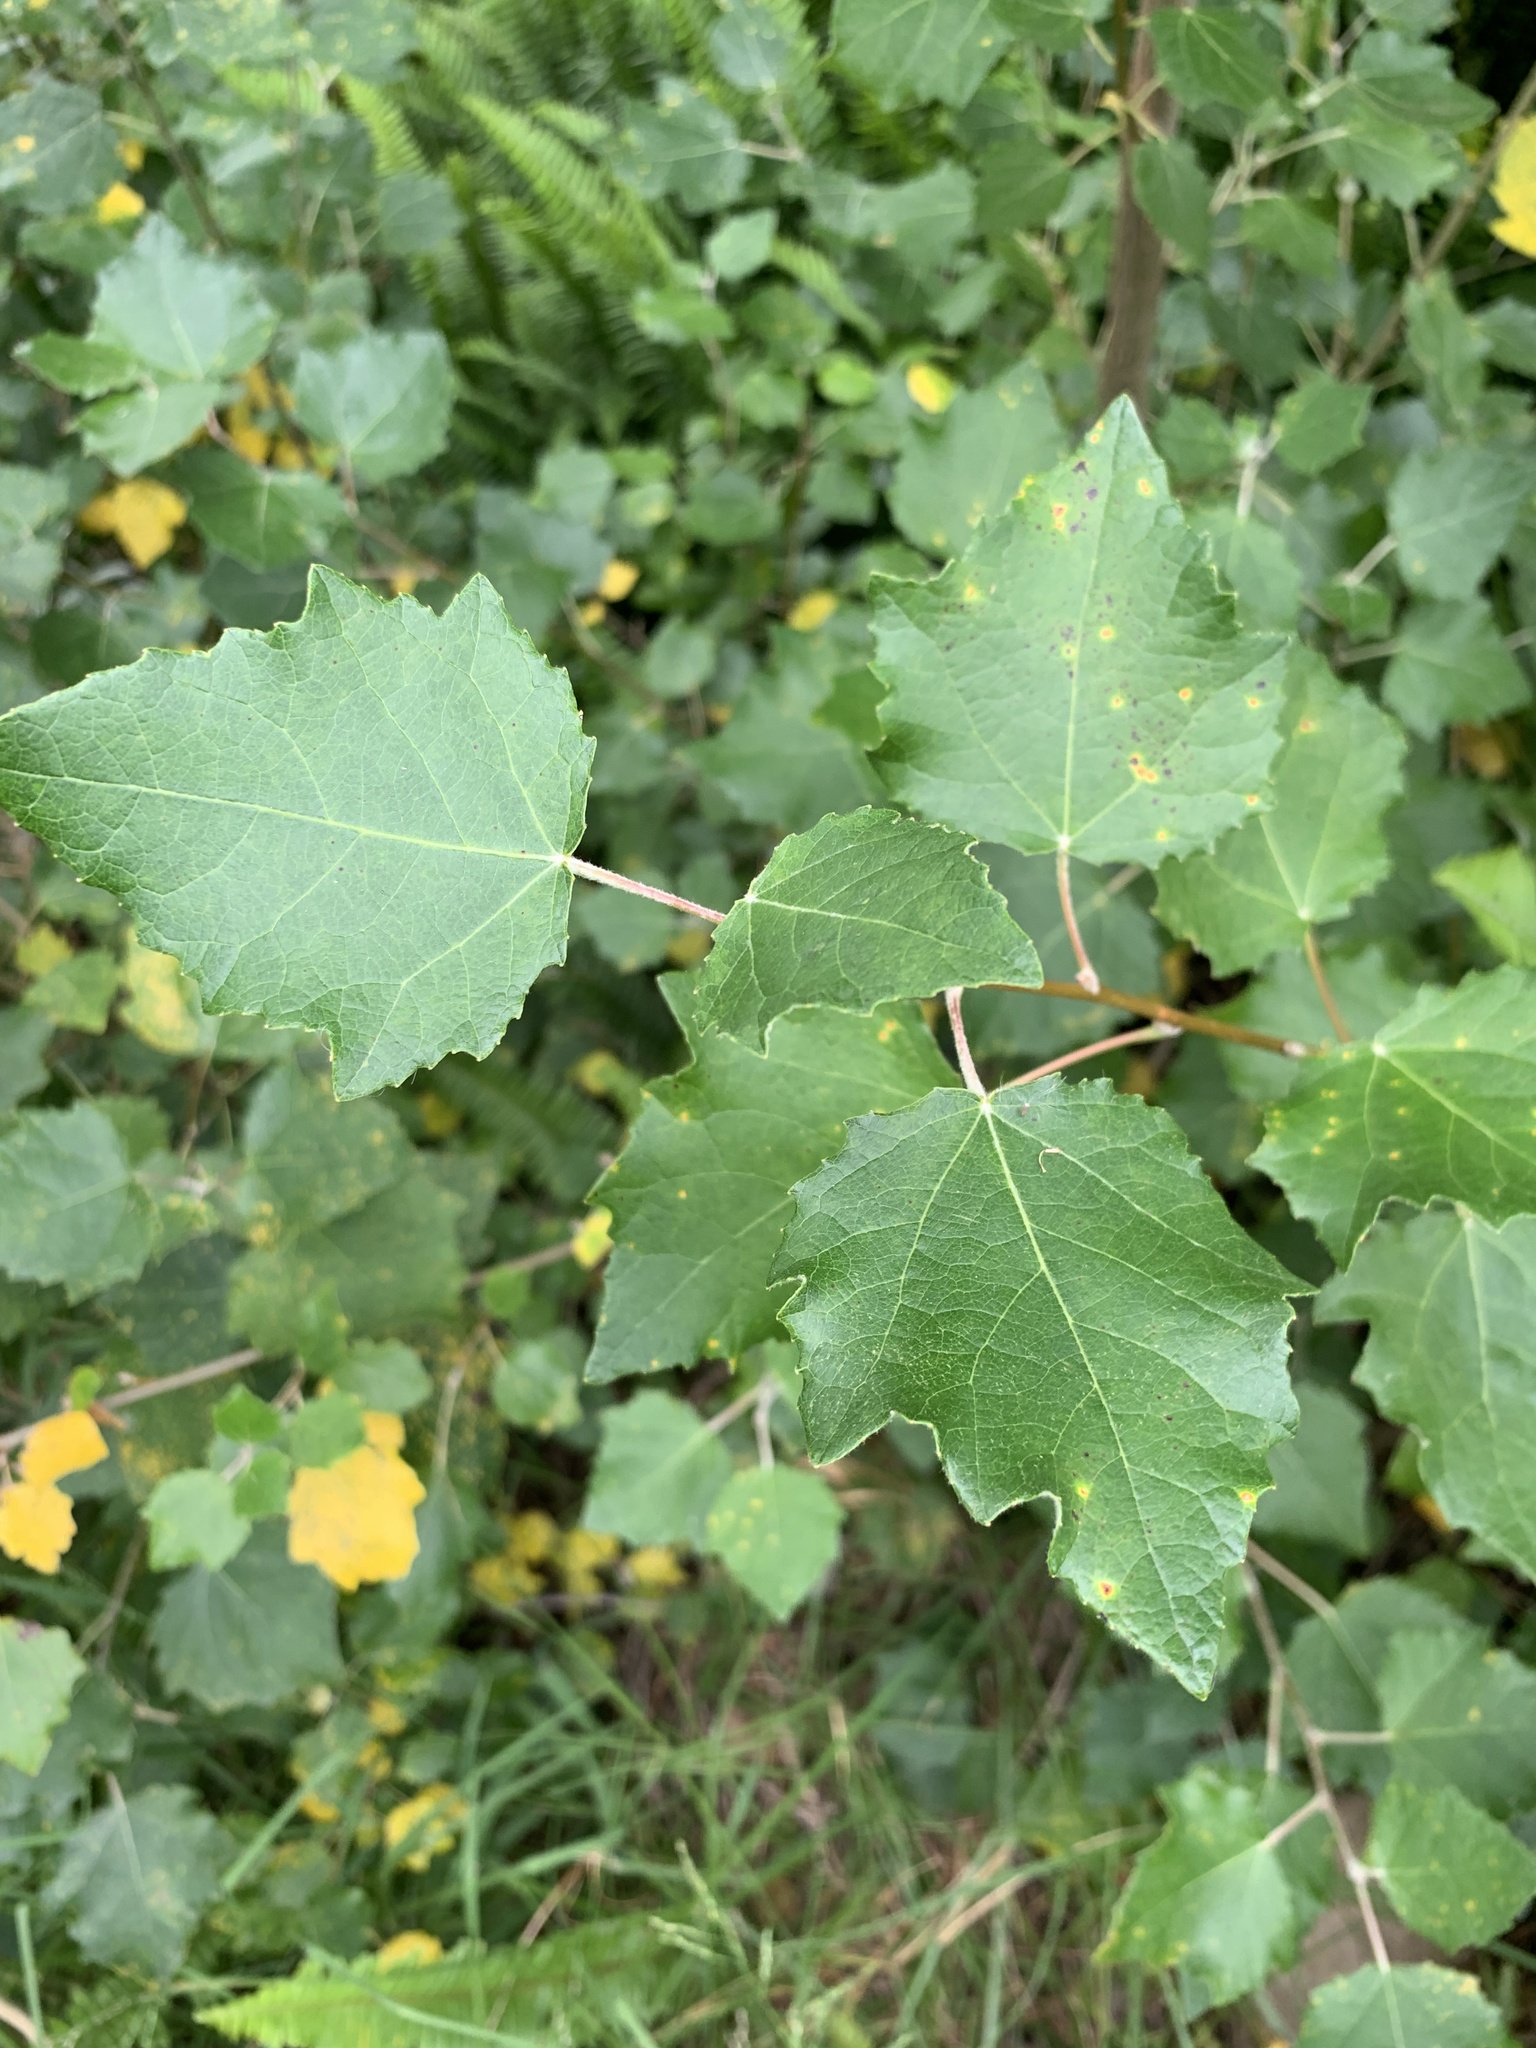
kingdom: Plantae
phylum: Tracheophyta
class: Magnoliopsida
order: Malpighiales
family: Salicaceae
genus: Populus
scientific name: Populus canescens
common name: Gray poplar
